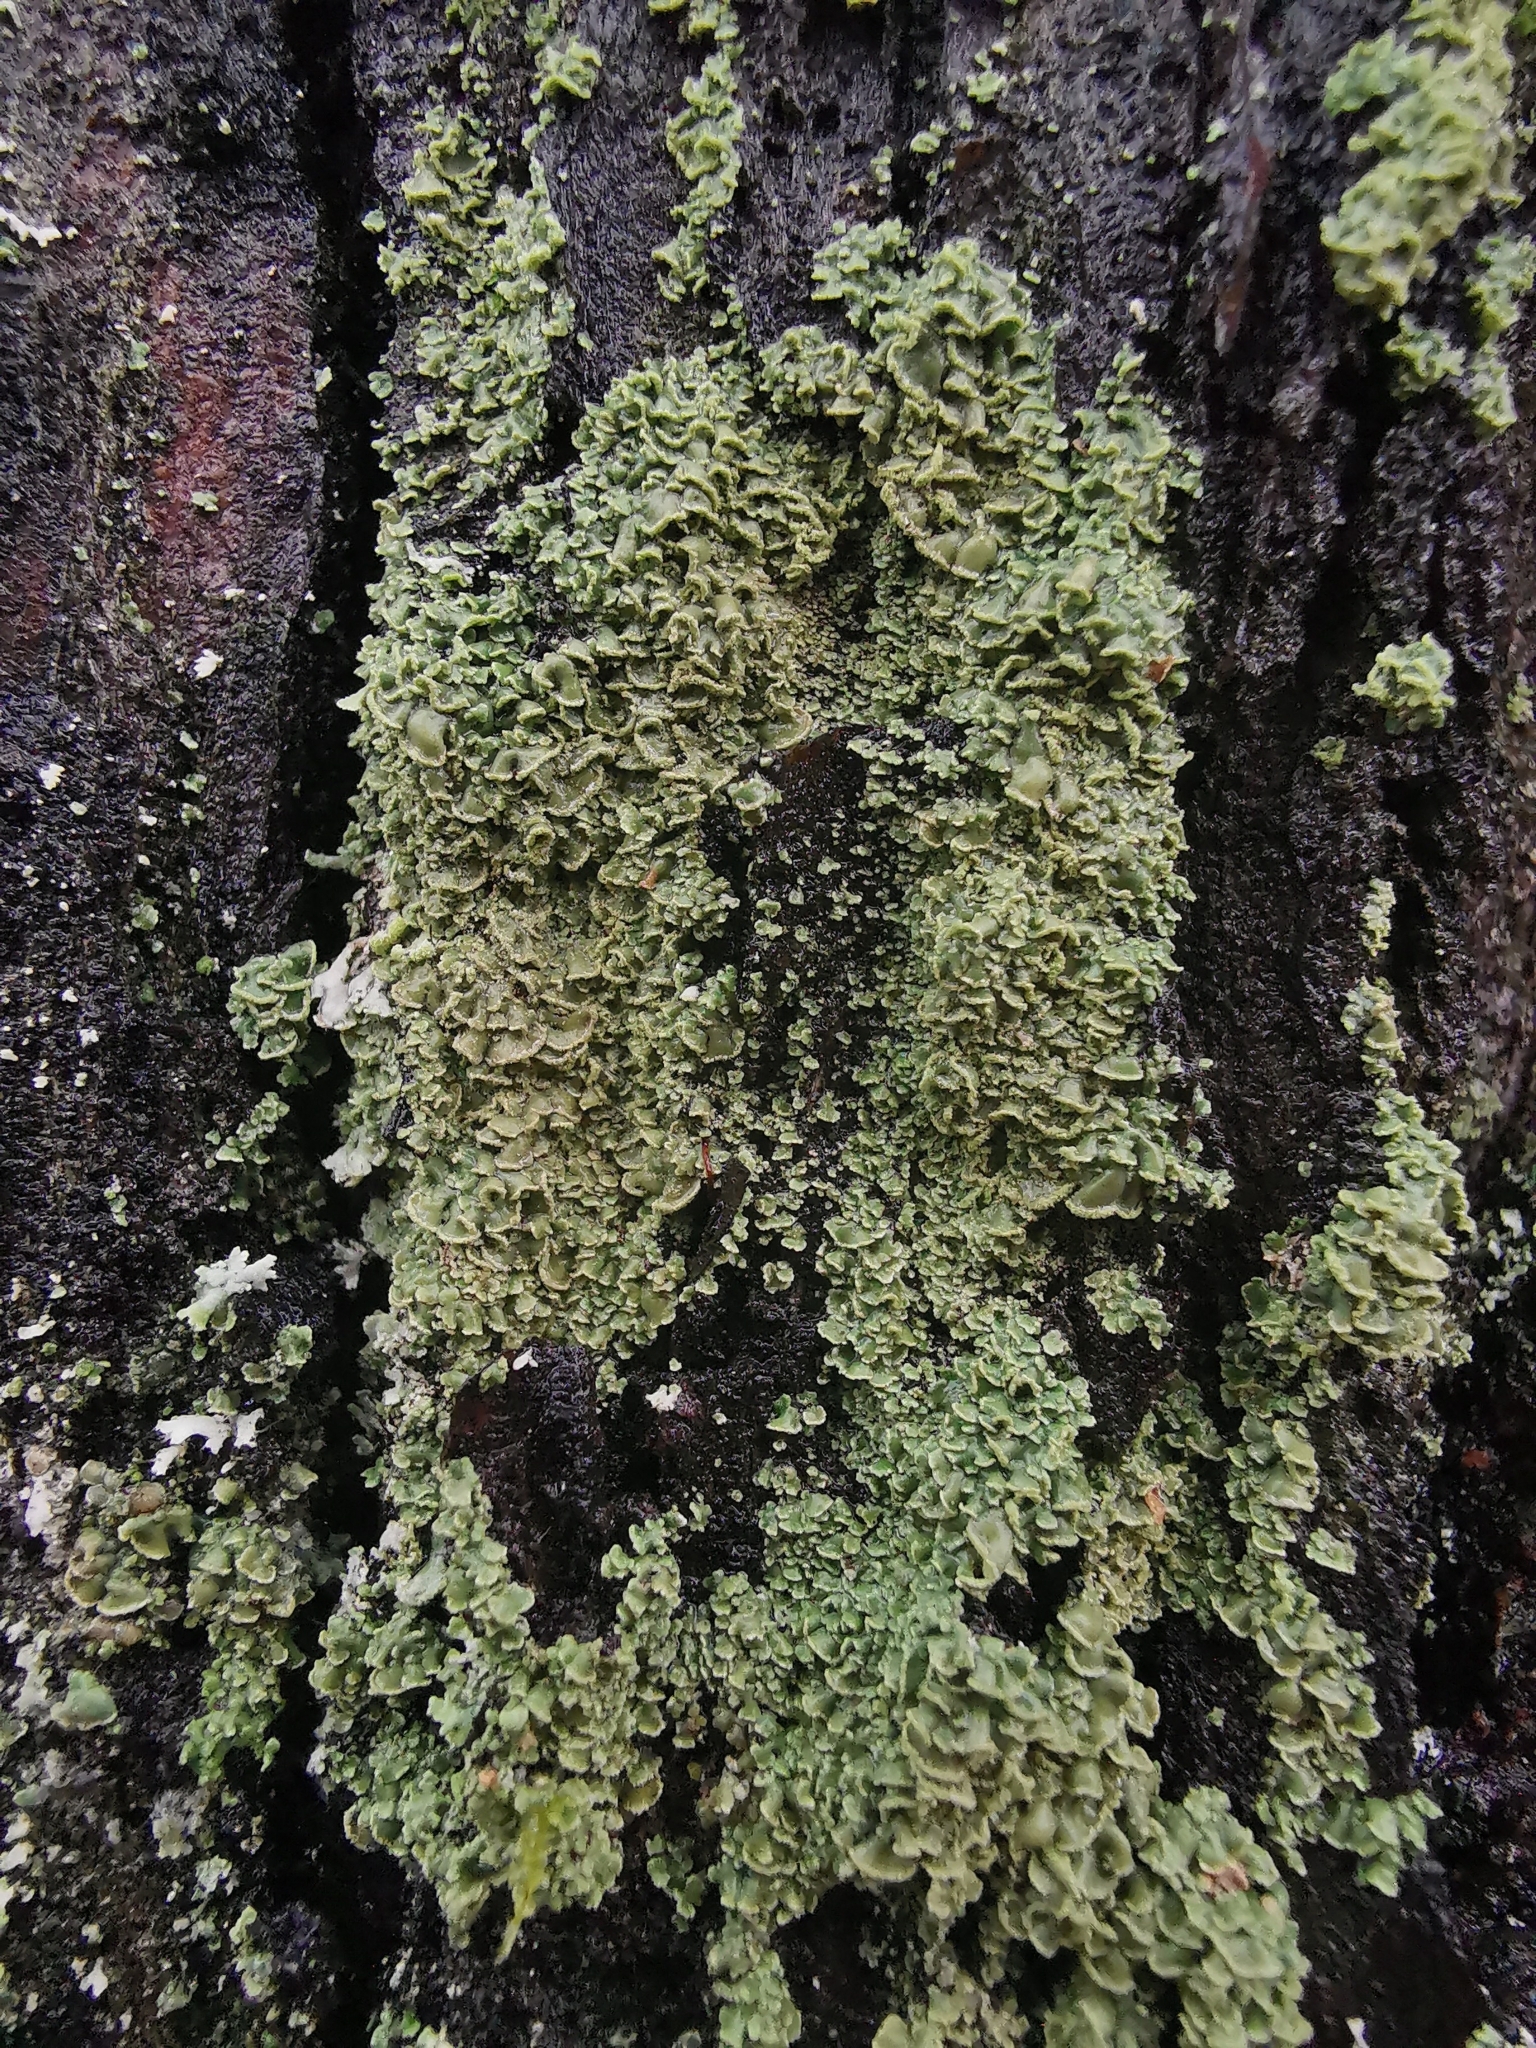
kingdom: Fungi
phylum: Ascomycota
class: Lecanoromycetes
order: Umbilicariales
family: Ophioparmaceae
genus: Hypocenomyce
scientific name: Hypocenomyce scalaris
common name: Common clam lichen
